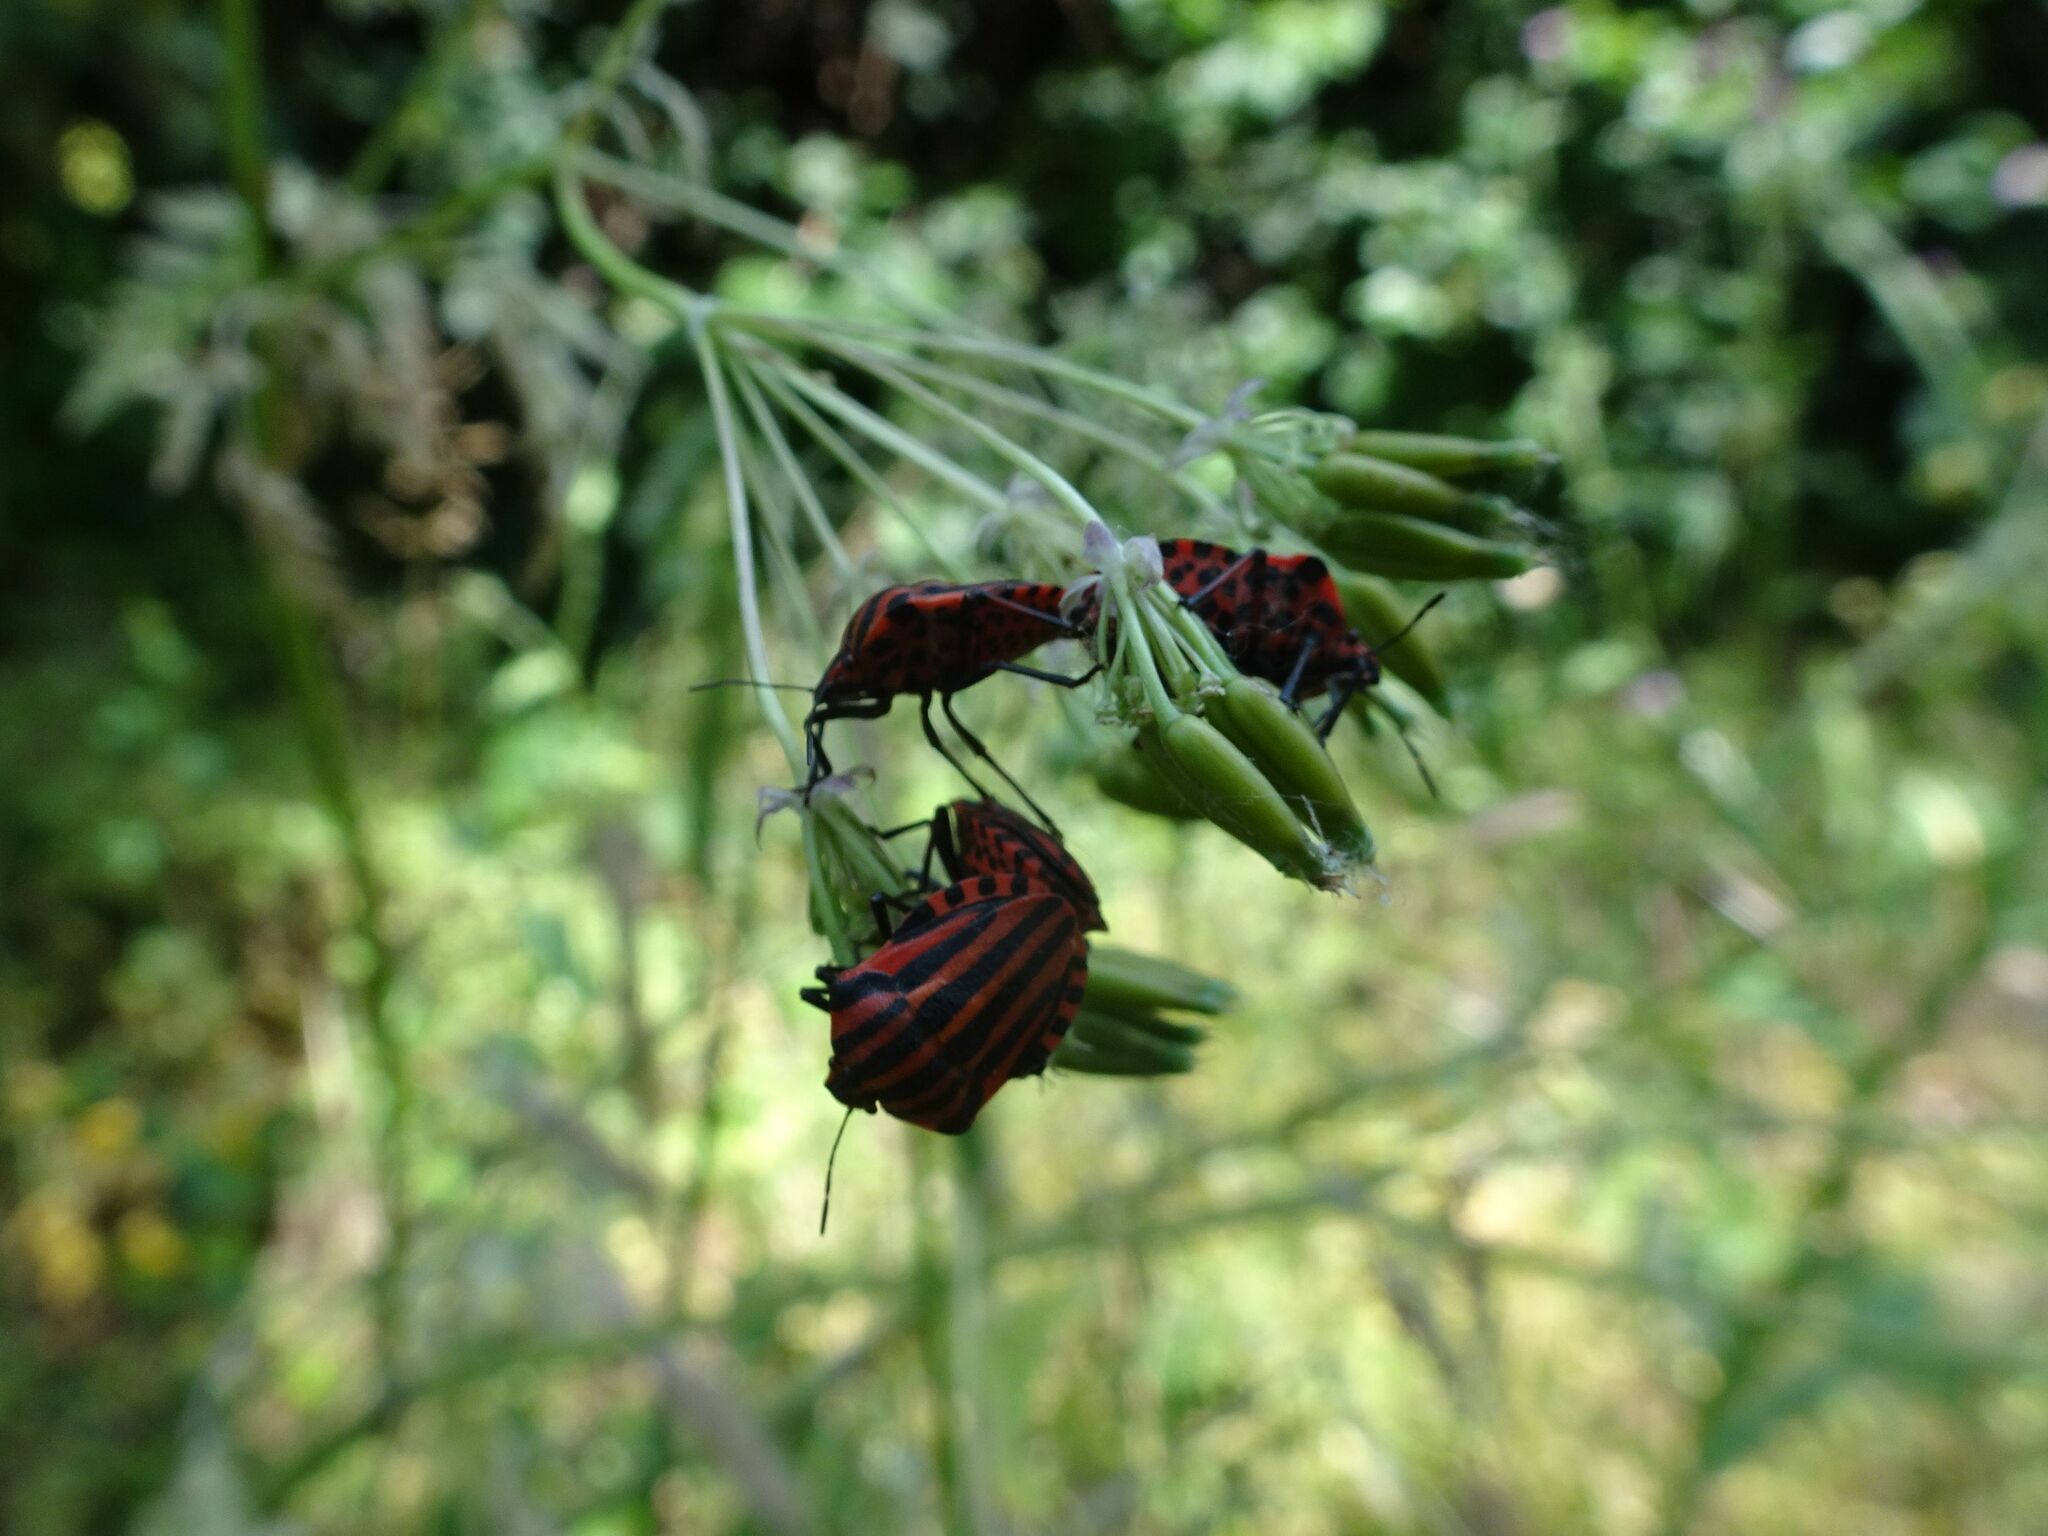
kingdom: Animalia
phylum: Arthropoda
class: Insecta
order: Hemiptera
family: Pentatomidae
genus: Graphosoma
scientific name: Graphosoma italicum
